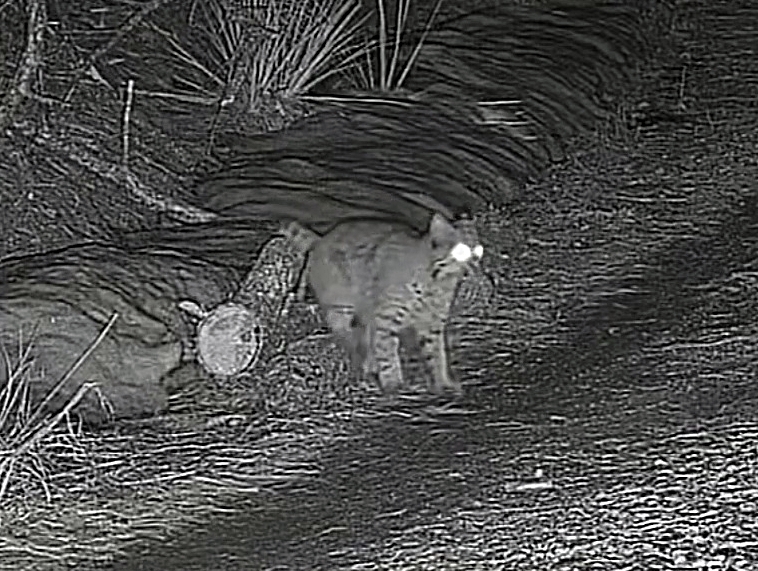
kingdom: Animalia
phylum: Chordata
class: Mammalia
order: Carnivora
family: Felidae
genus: Lynx
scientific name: Lynx rufus
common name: Bobcat
